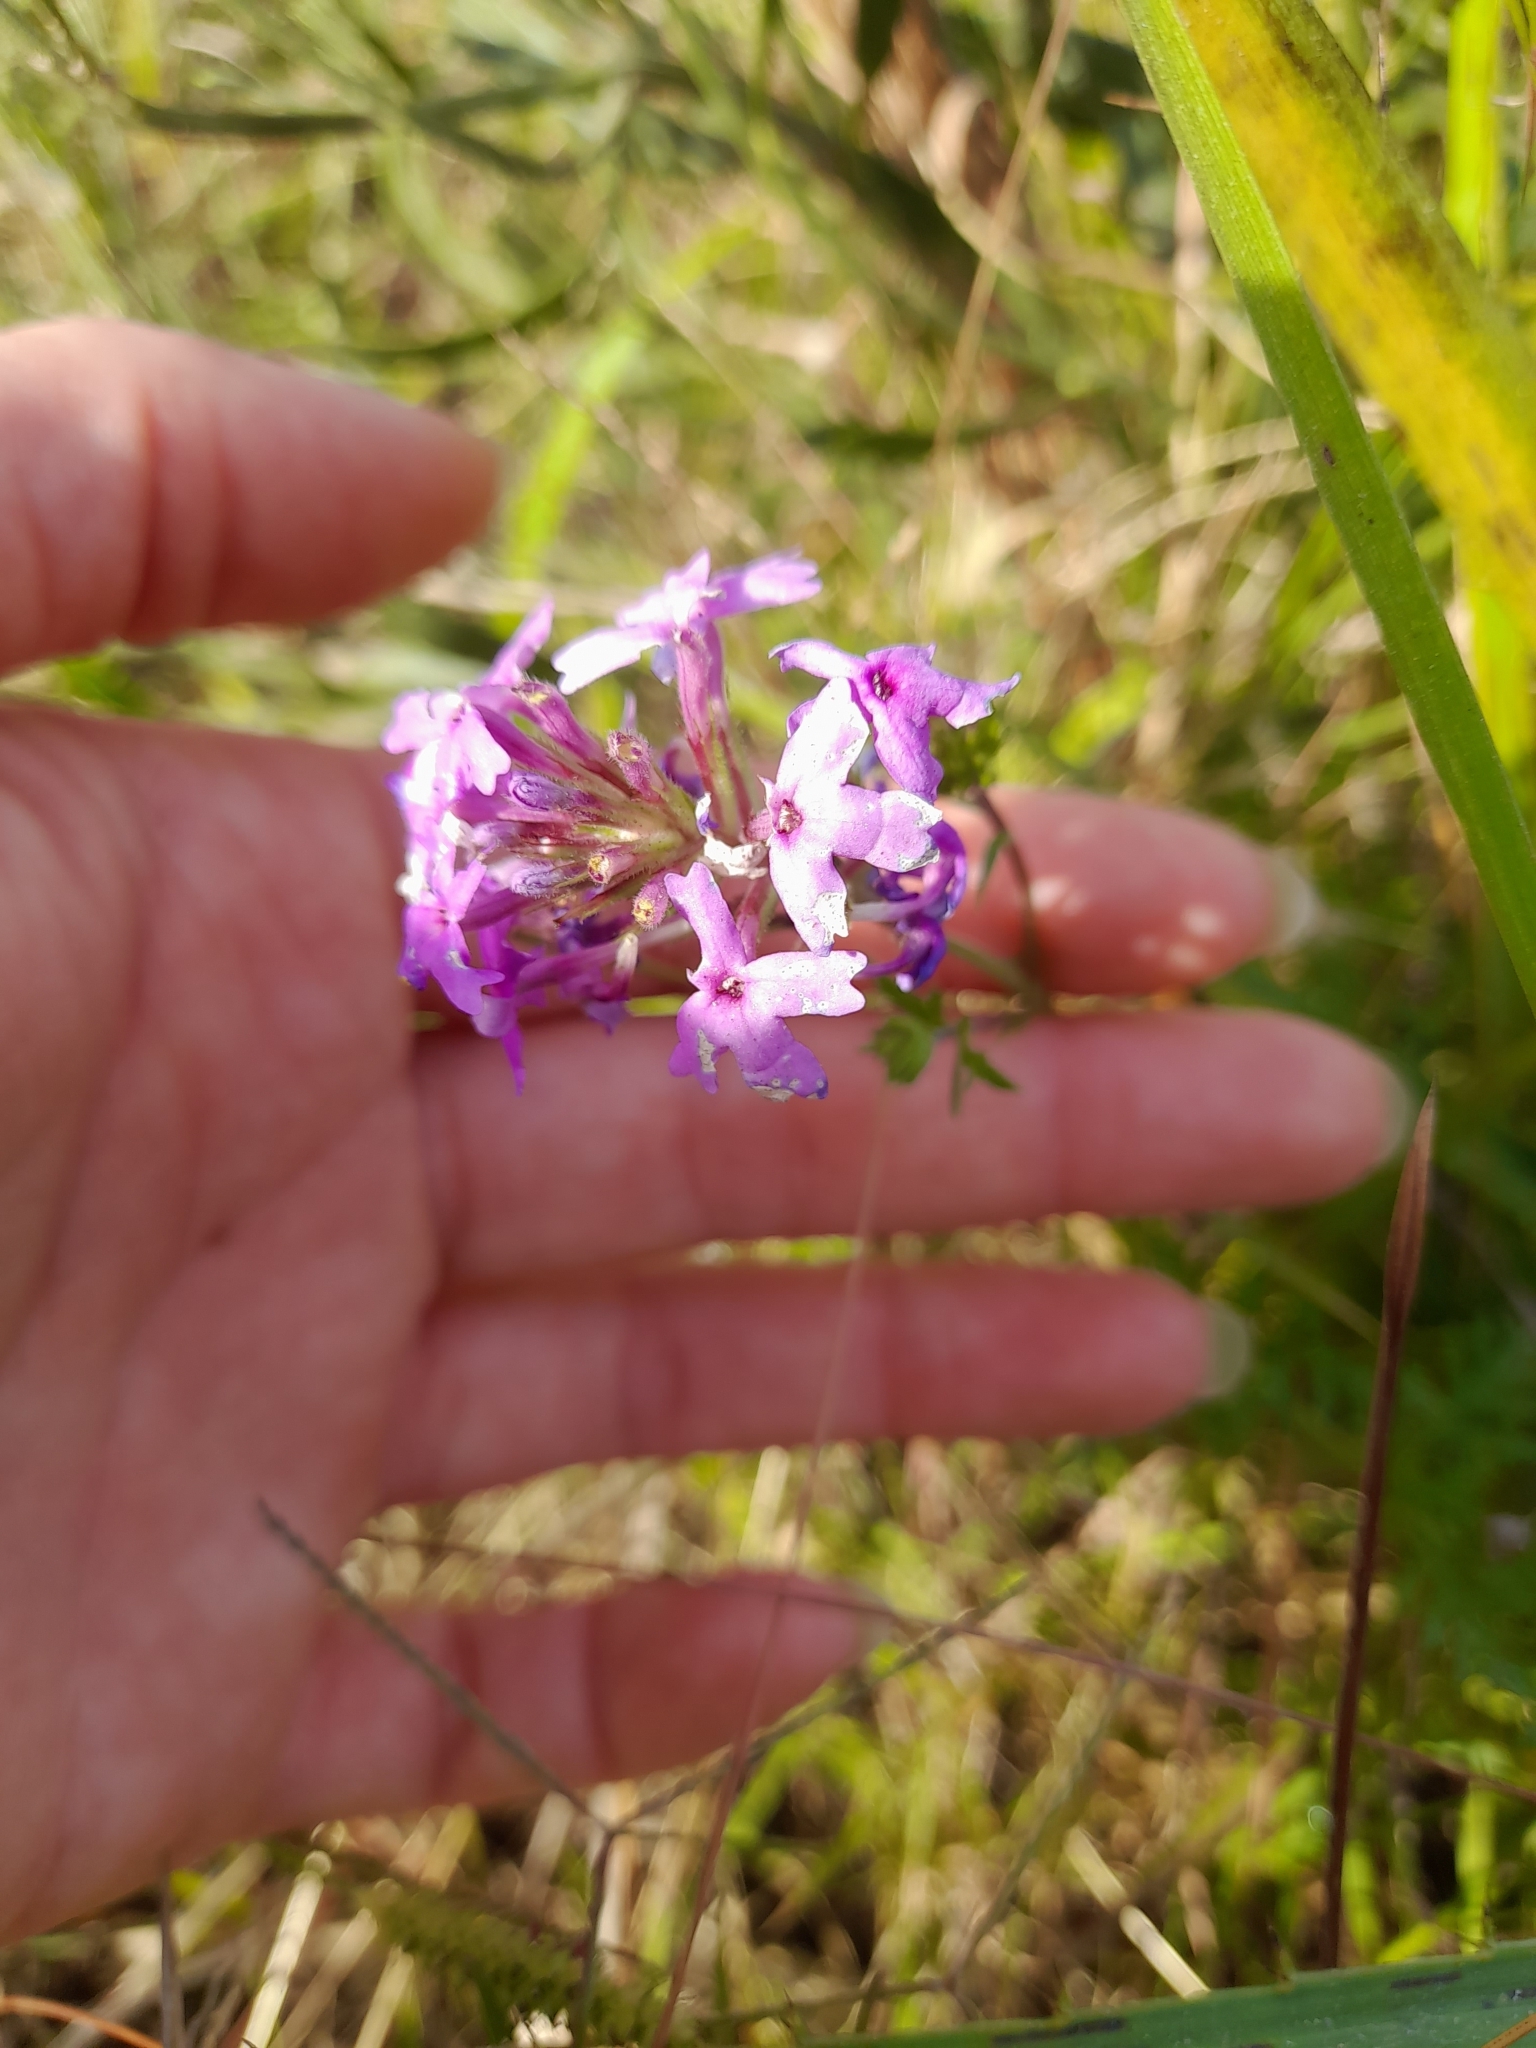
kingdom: Plantae
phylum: Tracheophyta
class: Magnoliopsida
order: Lamiales
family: Verbenaceae
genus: Verbena
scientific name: Verbena selloi
